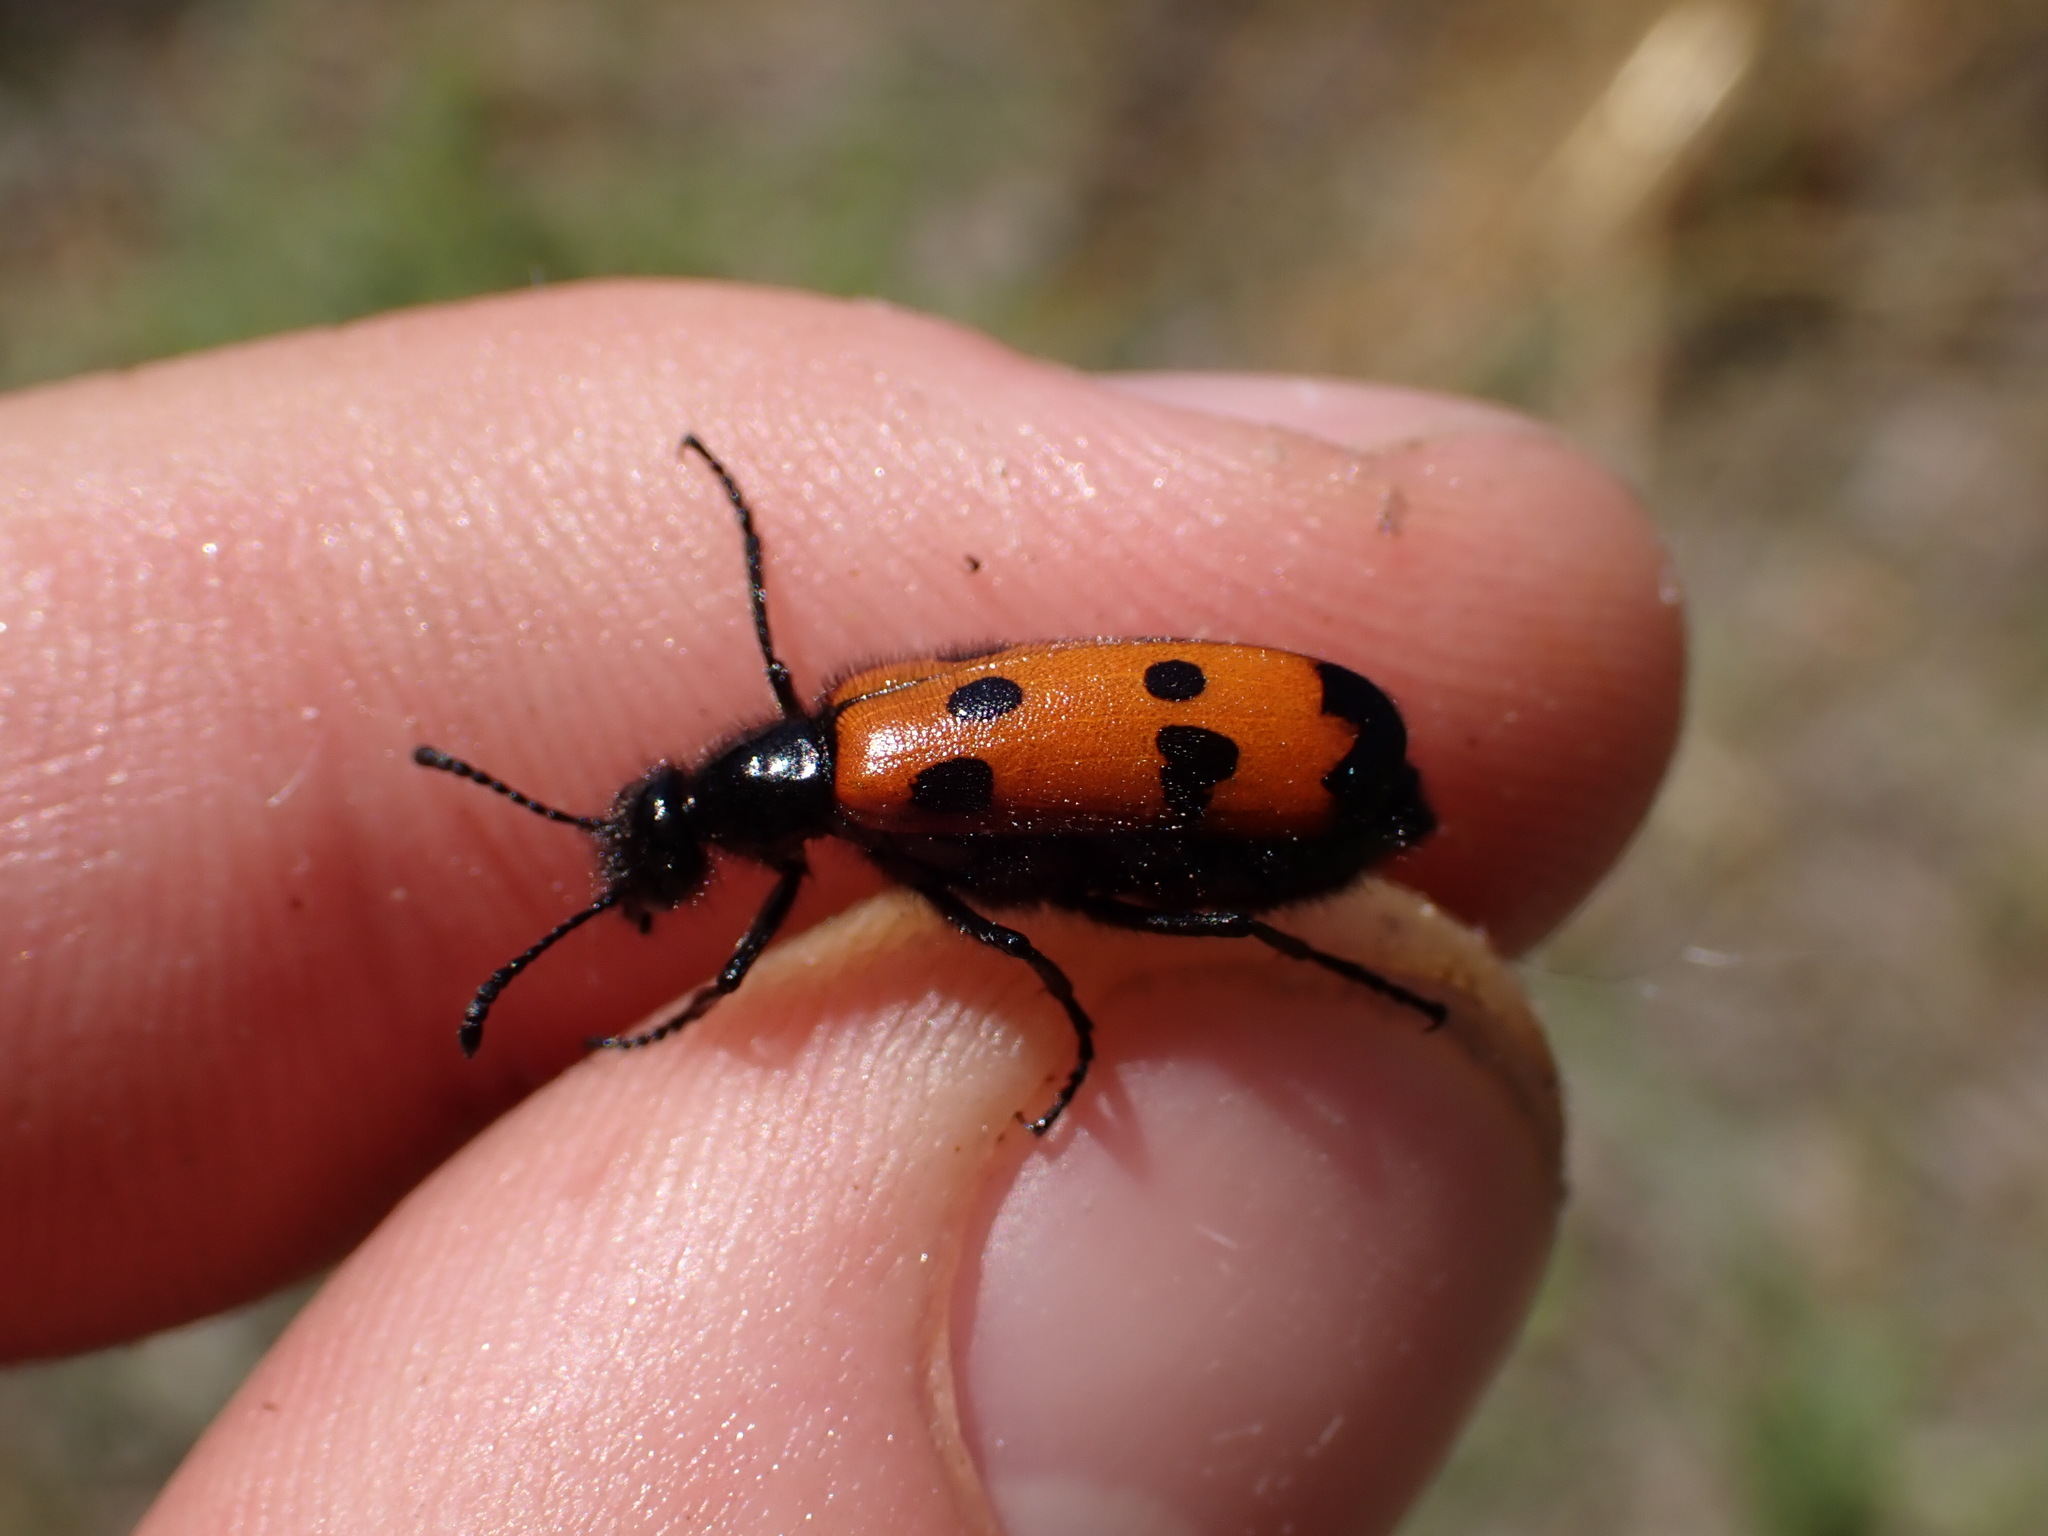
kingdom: Animalia
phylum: Arthropoda
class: Insecta
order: Coleoptera
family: Meloidae
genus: Mylabris
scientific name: Mylabris quadripunctata
